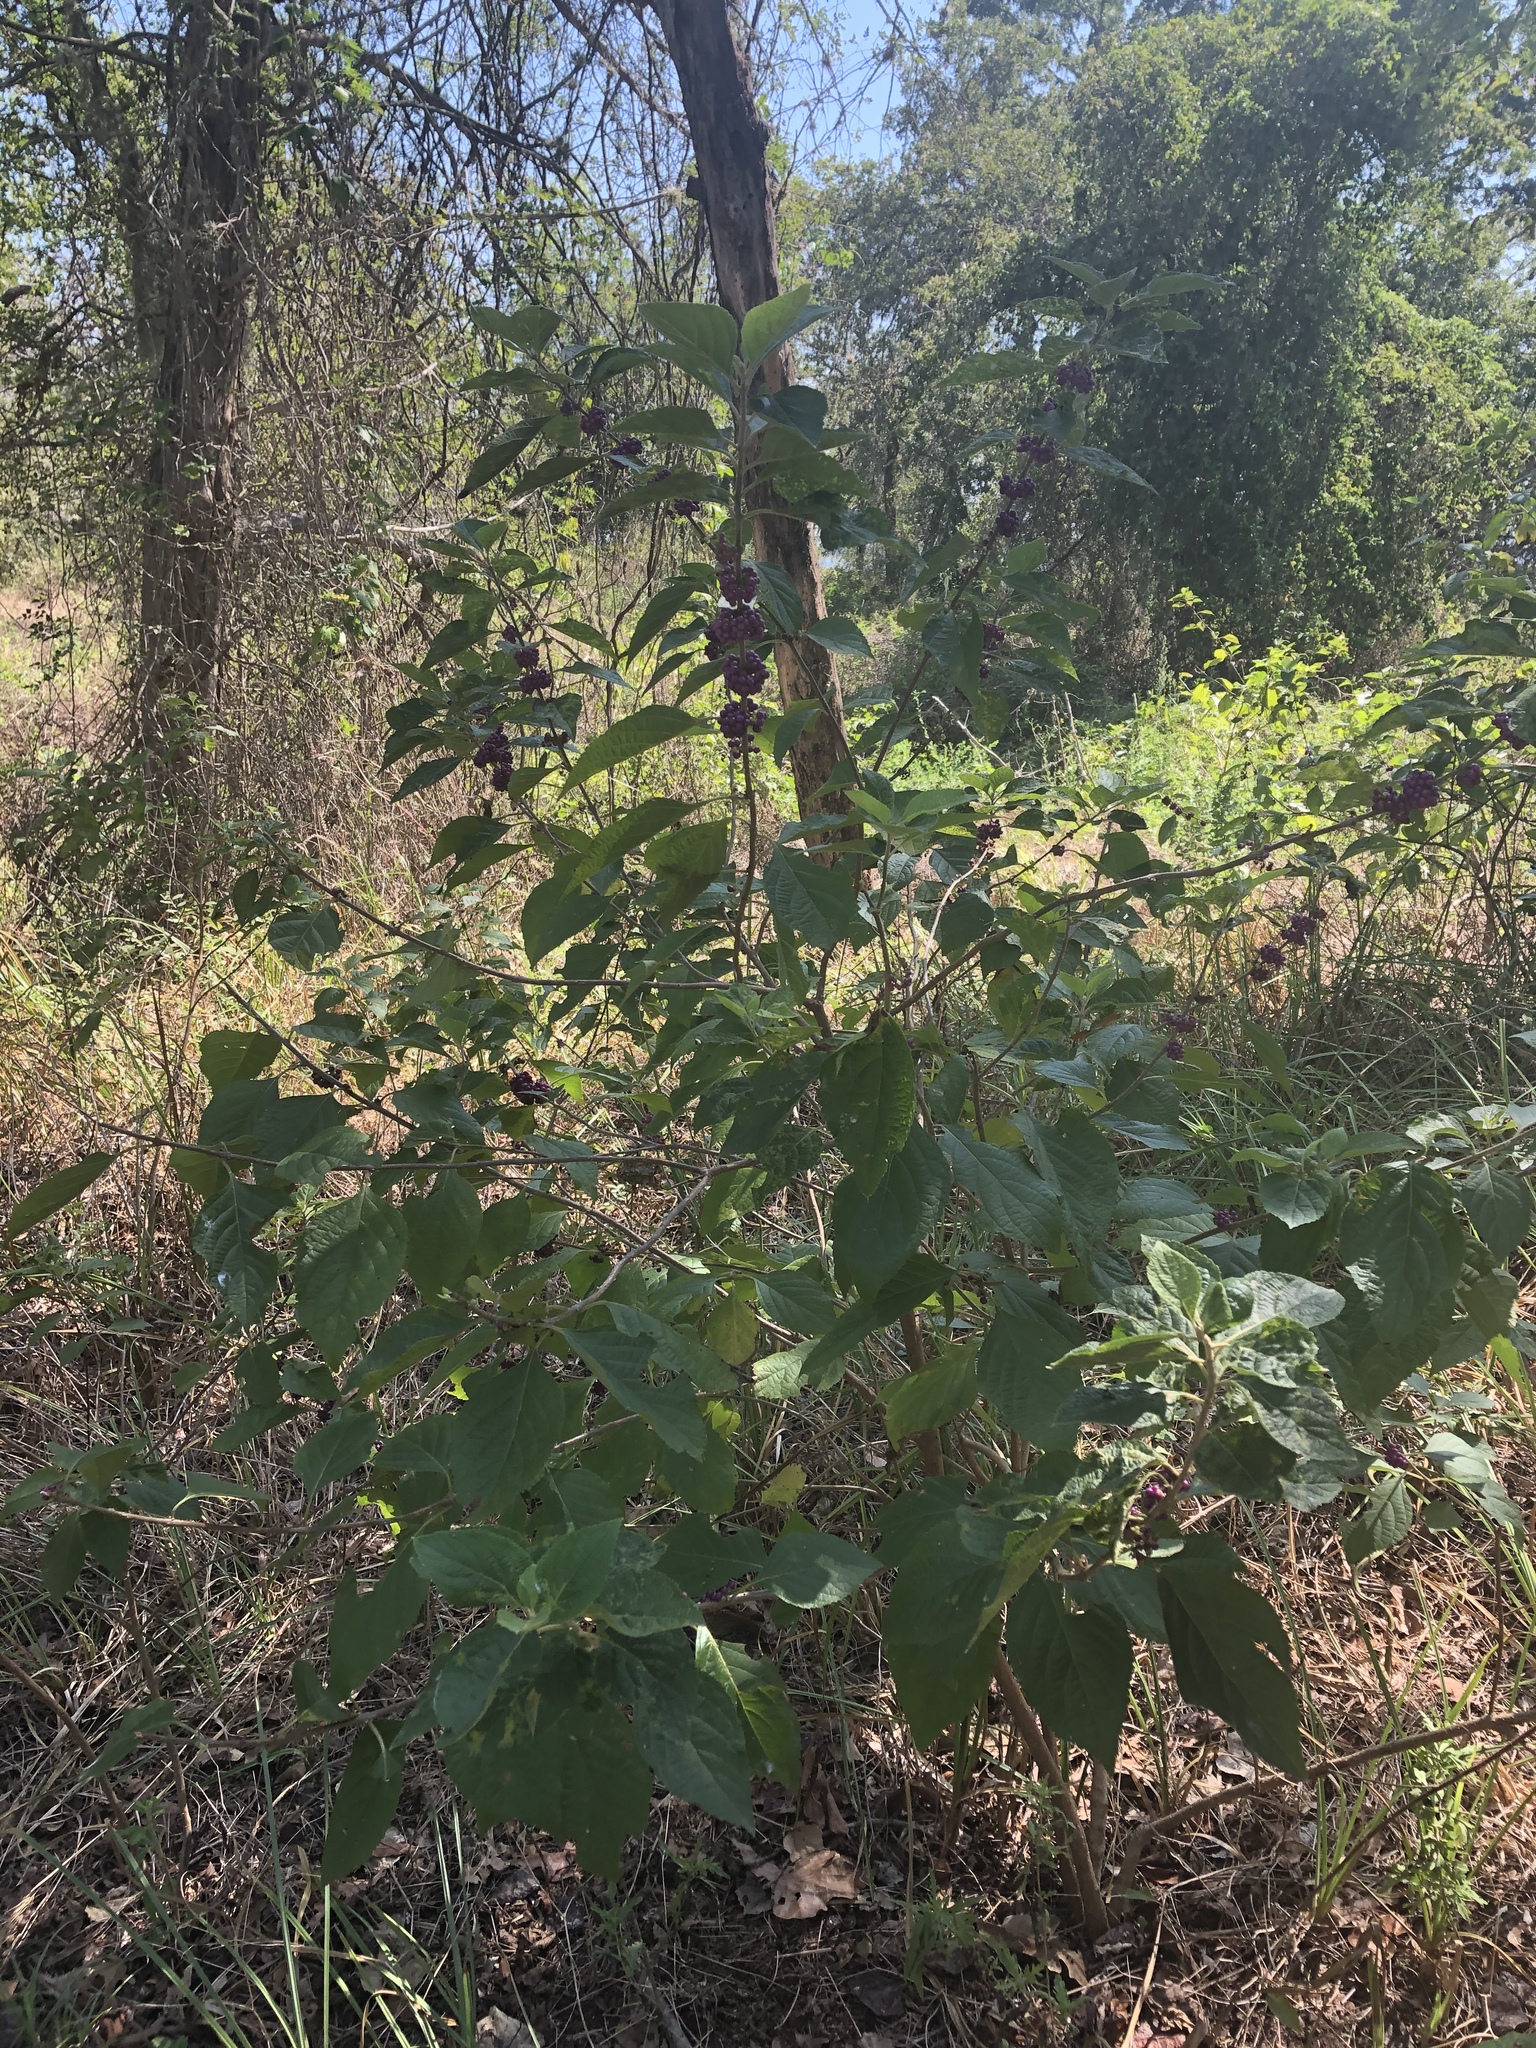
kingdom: Plantae
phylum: Tracheophyta
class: Magnoliopsida
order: Lamiales
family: Lamiaceae
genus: Callicarpa
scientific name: Callicarpa americana
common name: American beautyberry
